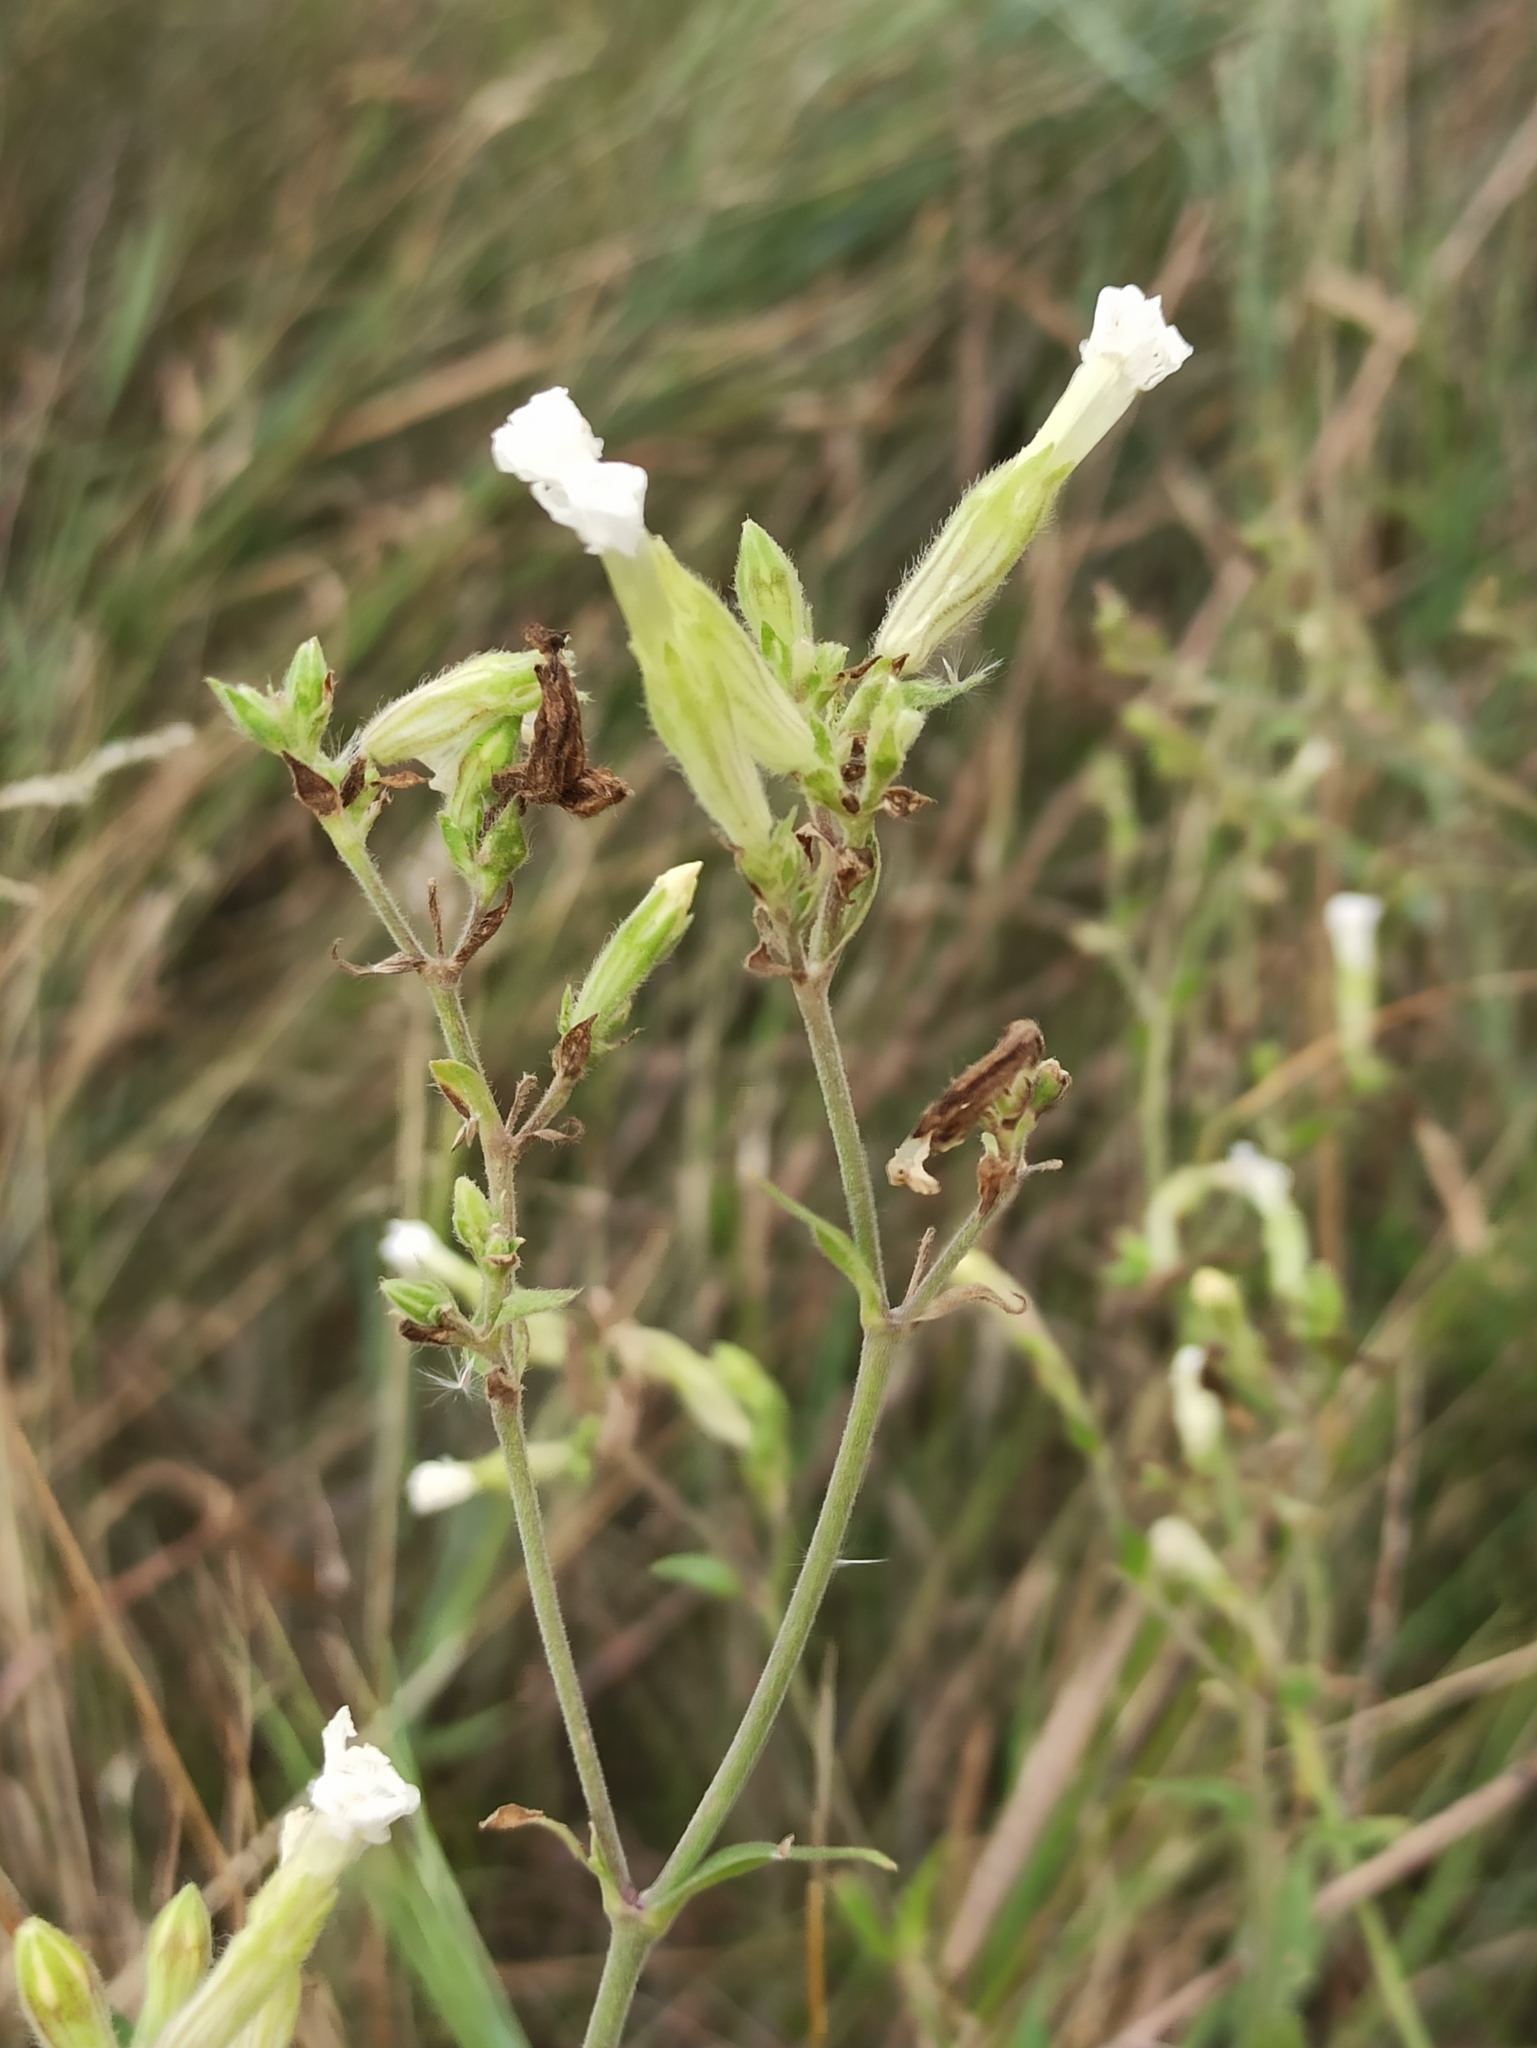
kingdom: Plantae
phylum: Tracheophyta
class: Magnoliopsida
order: Caryophyllales
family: Caryophyllaceae
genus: Silene
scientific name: Silene latifolia
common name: White campion
